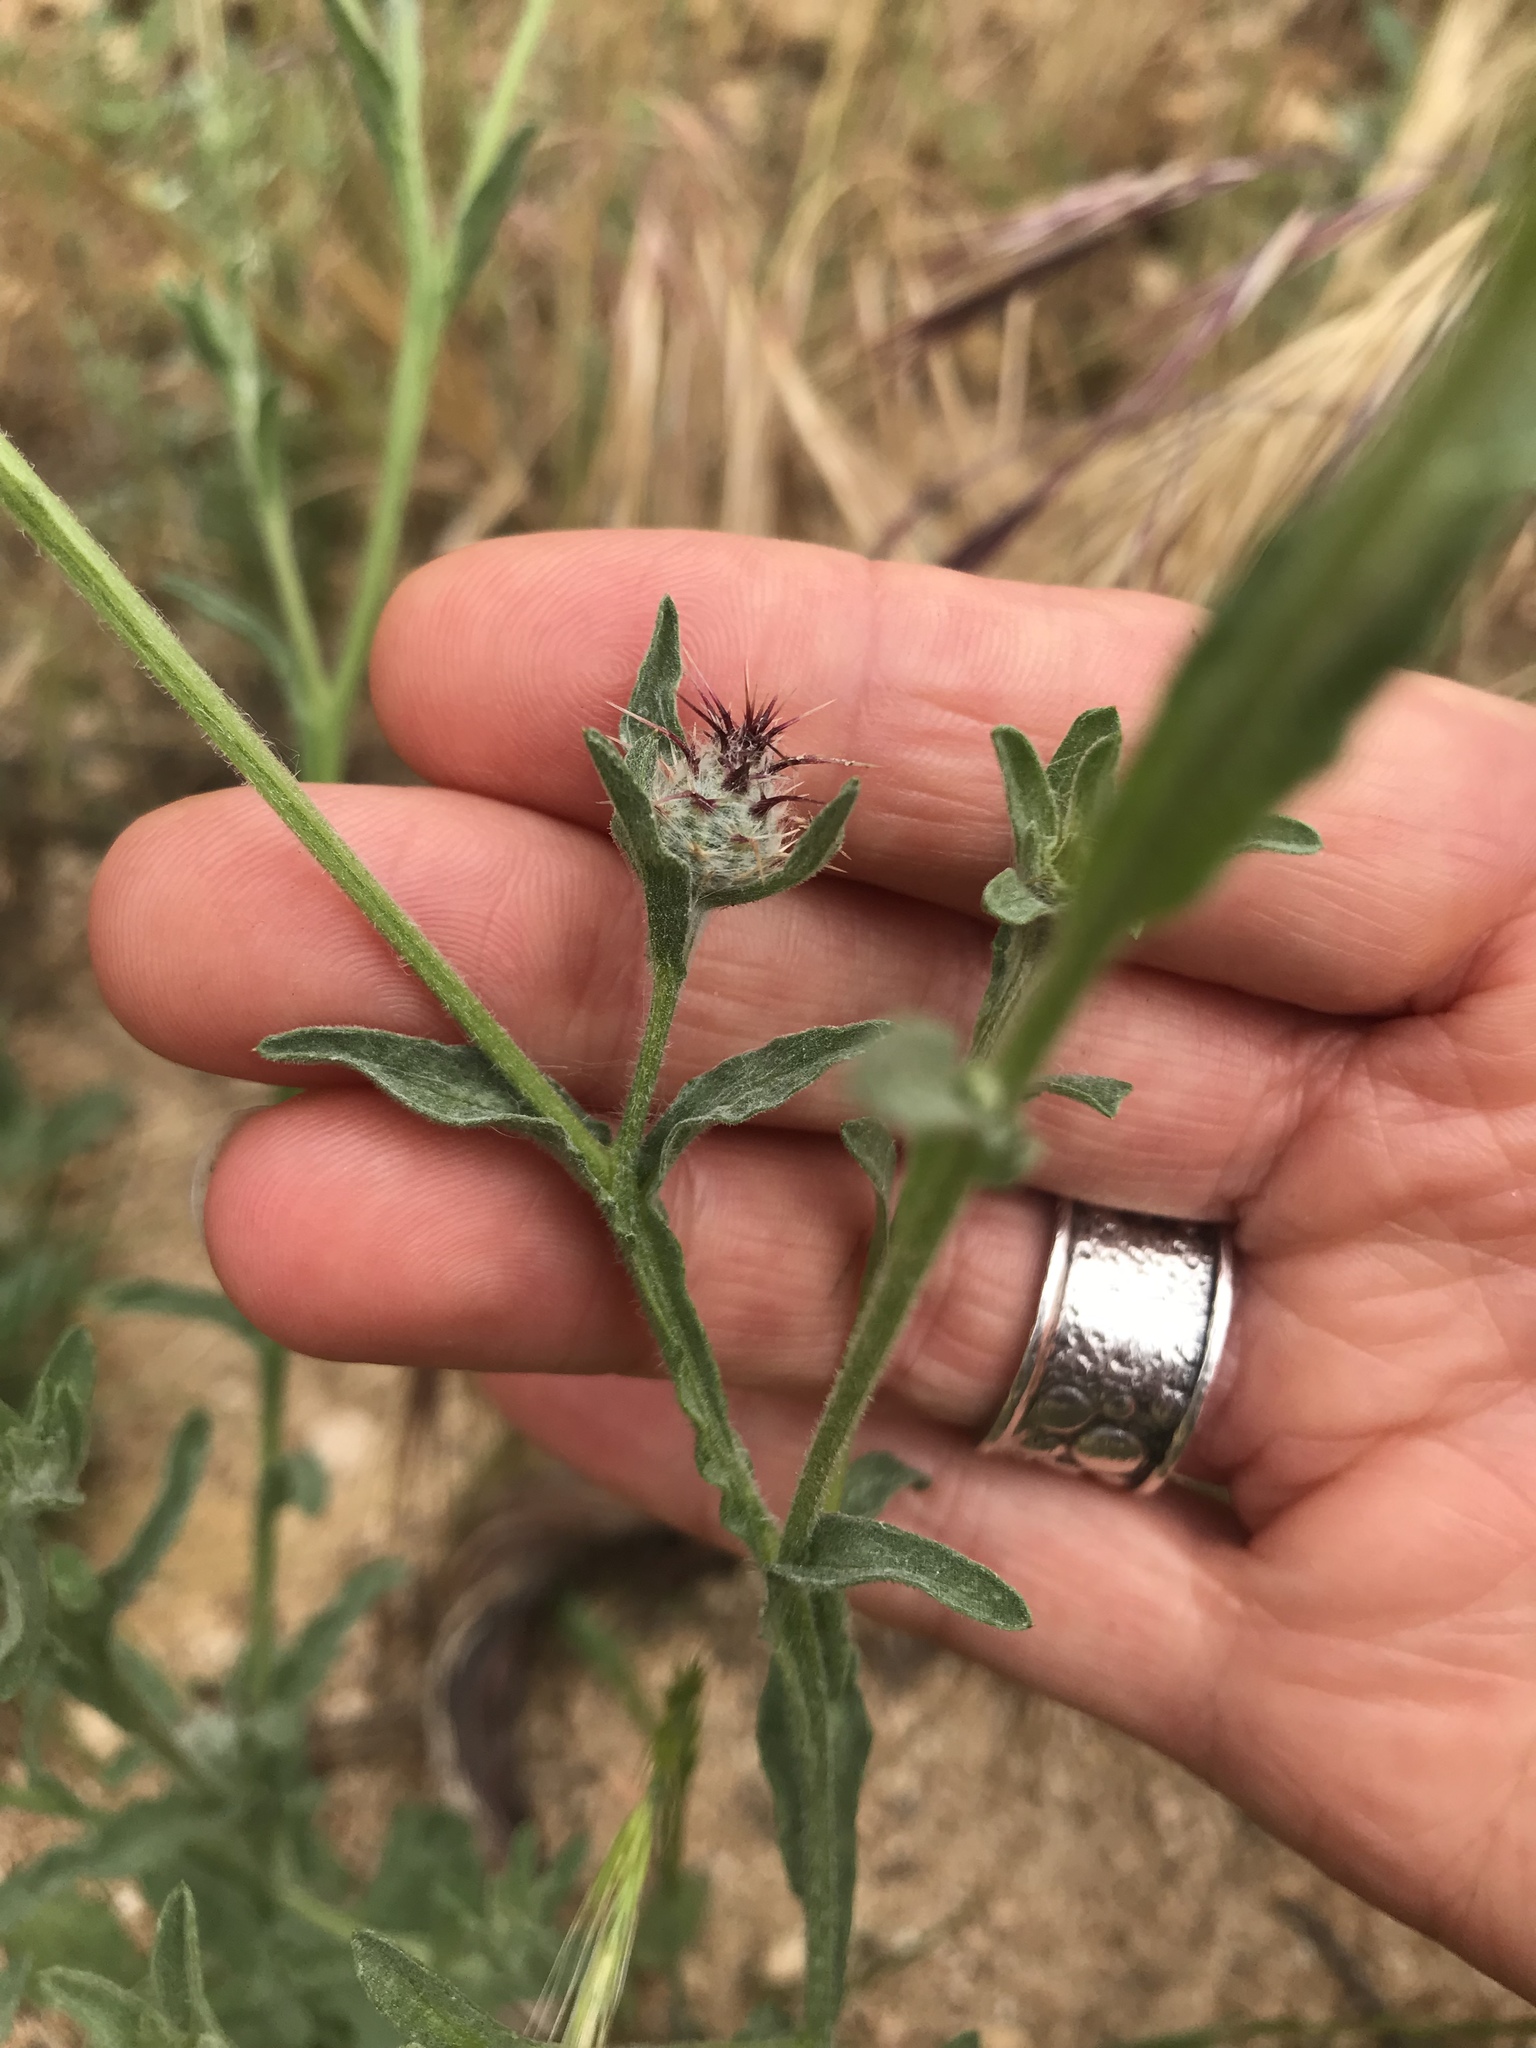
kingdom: Plantae
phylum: Tracheophyta
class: Magnoliopsida
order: Asterales
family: Asteraceae
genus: Centaurea
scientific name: Centaurea melitensis
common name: Maltese star-thistle
